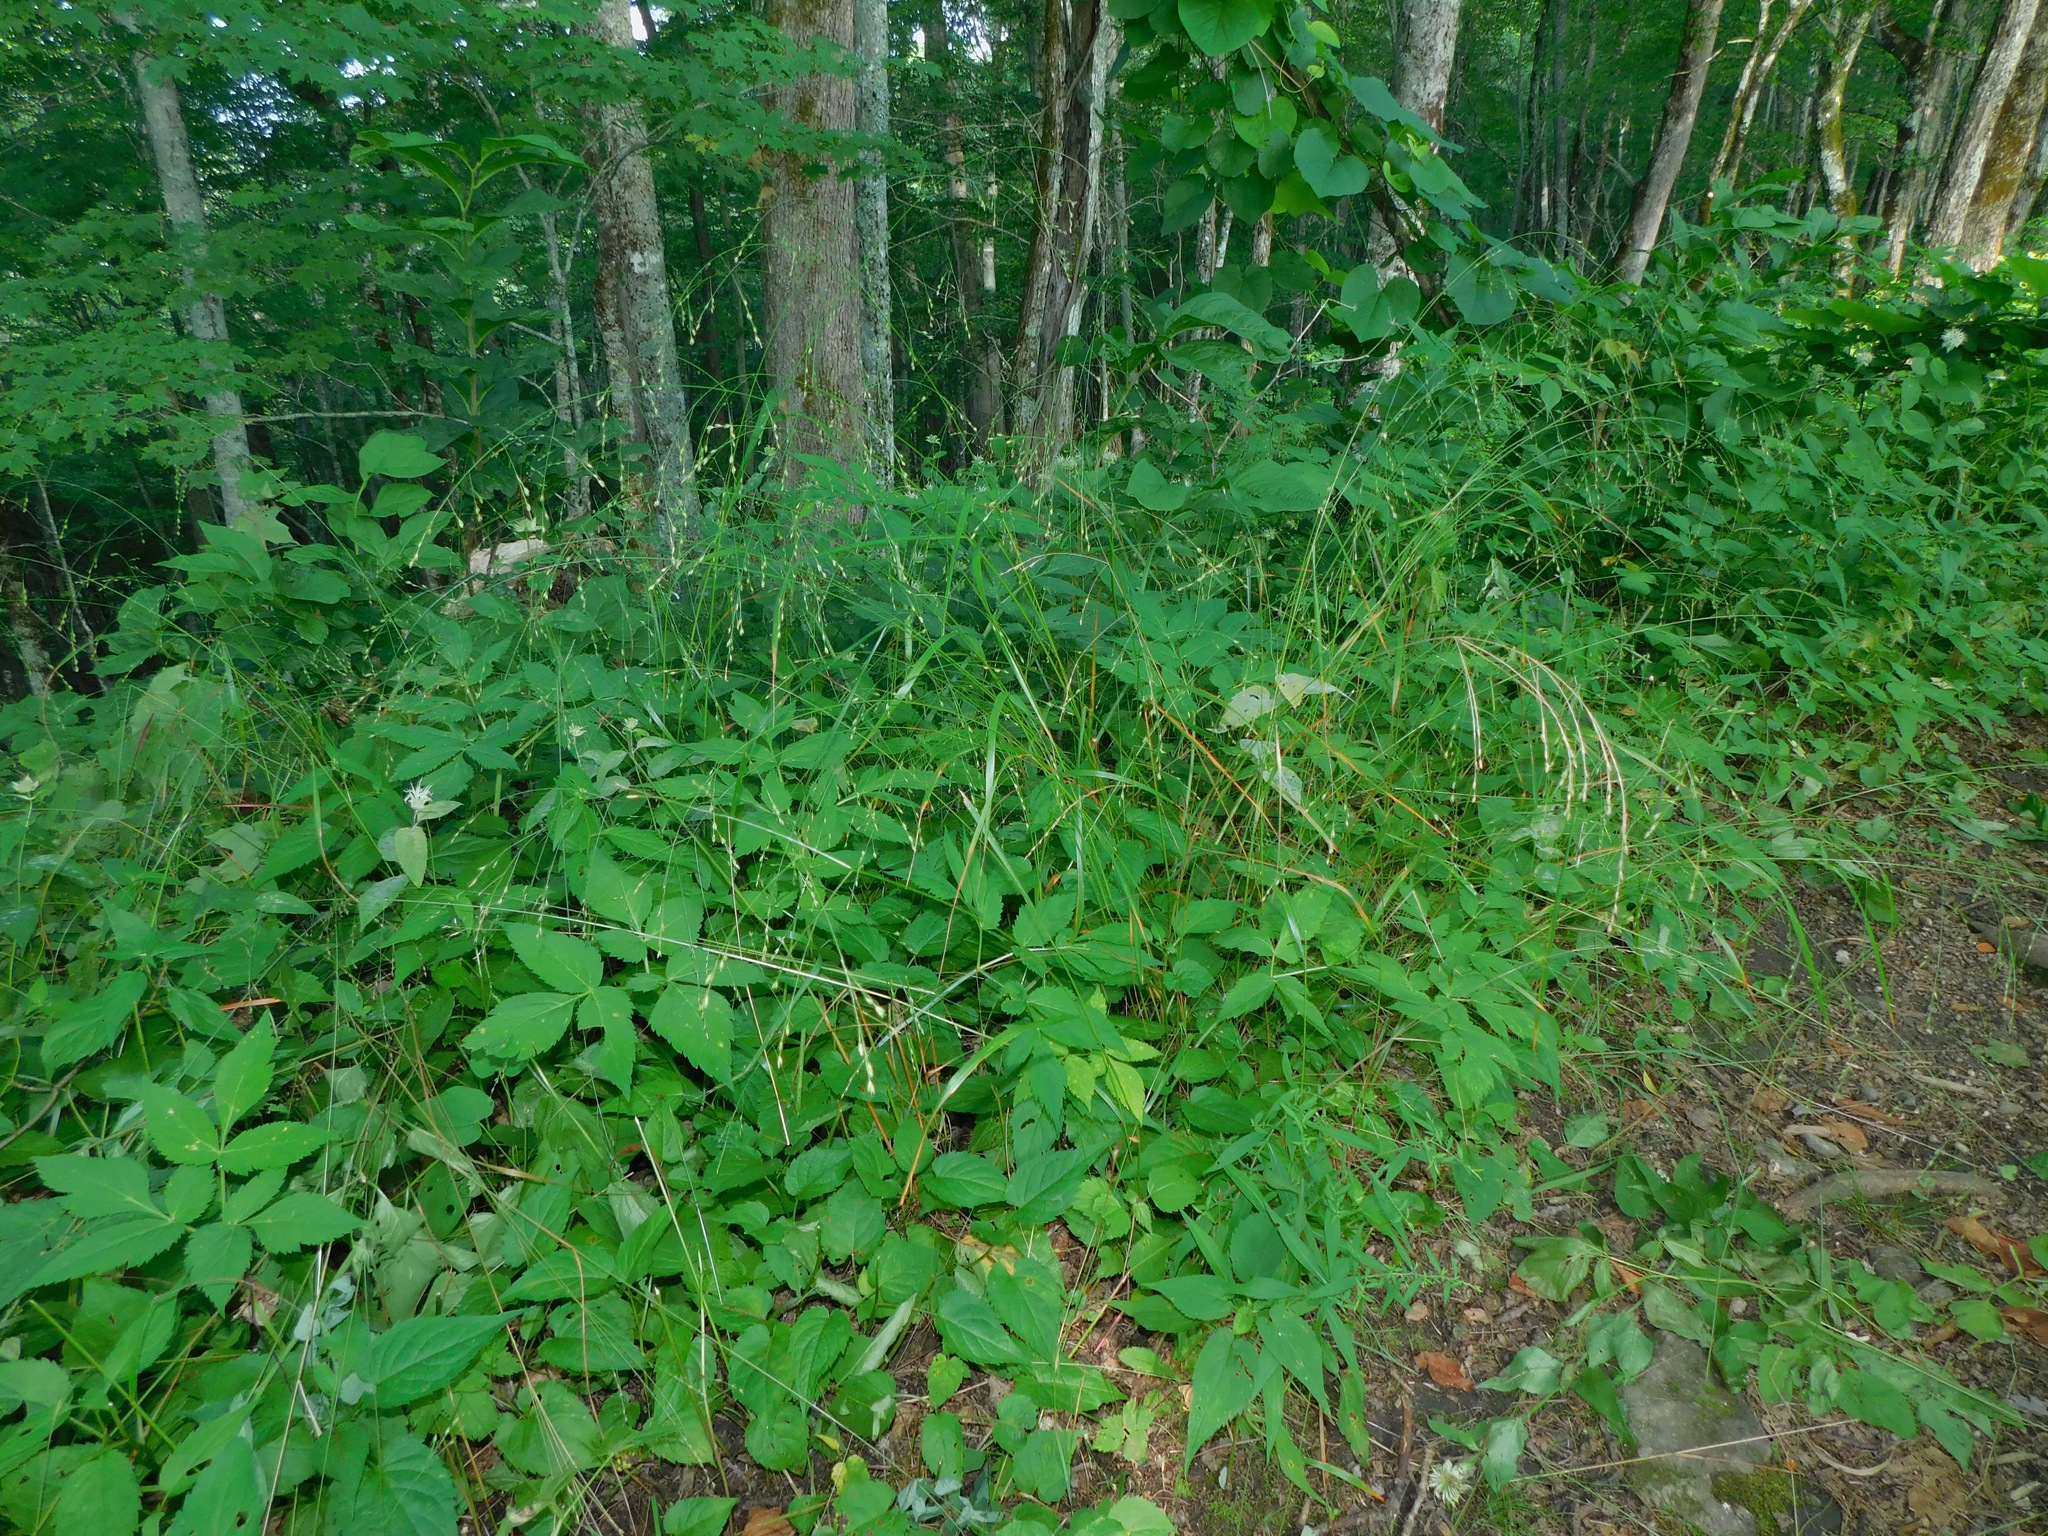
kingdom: Plantae
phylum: Tracheophyta
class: Liliopsida
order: Poales
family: Poaceae
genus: Festuca
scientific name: Festuca subverticillata
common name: Nodding fescue
